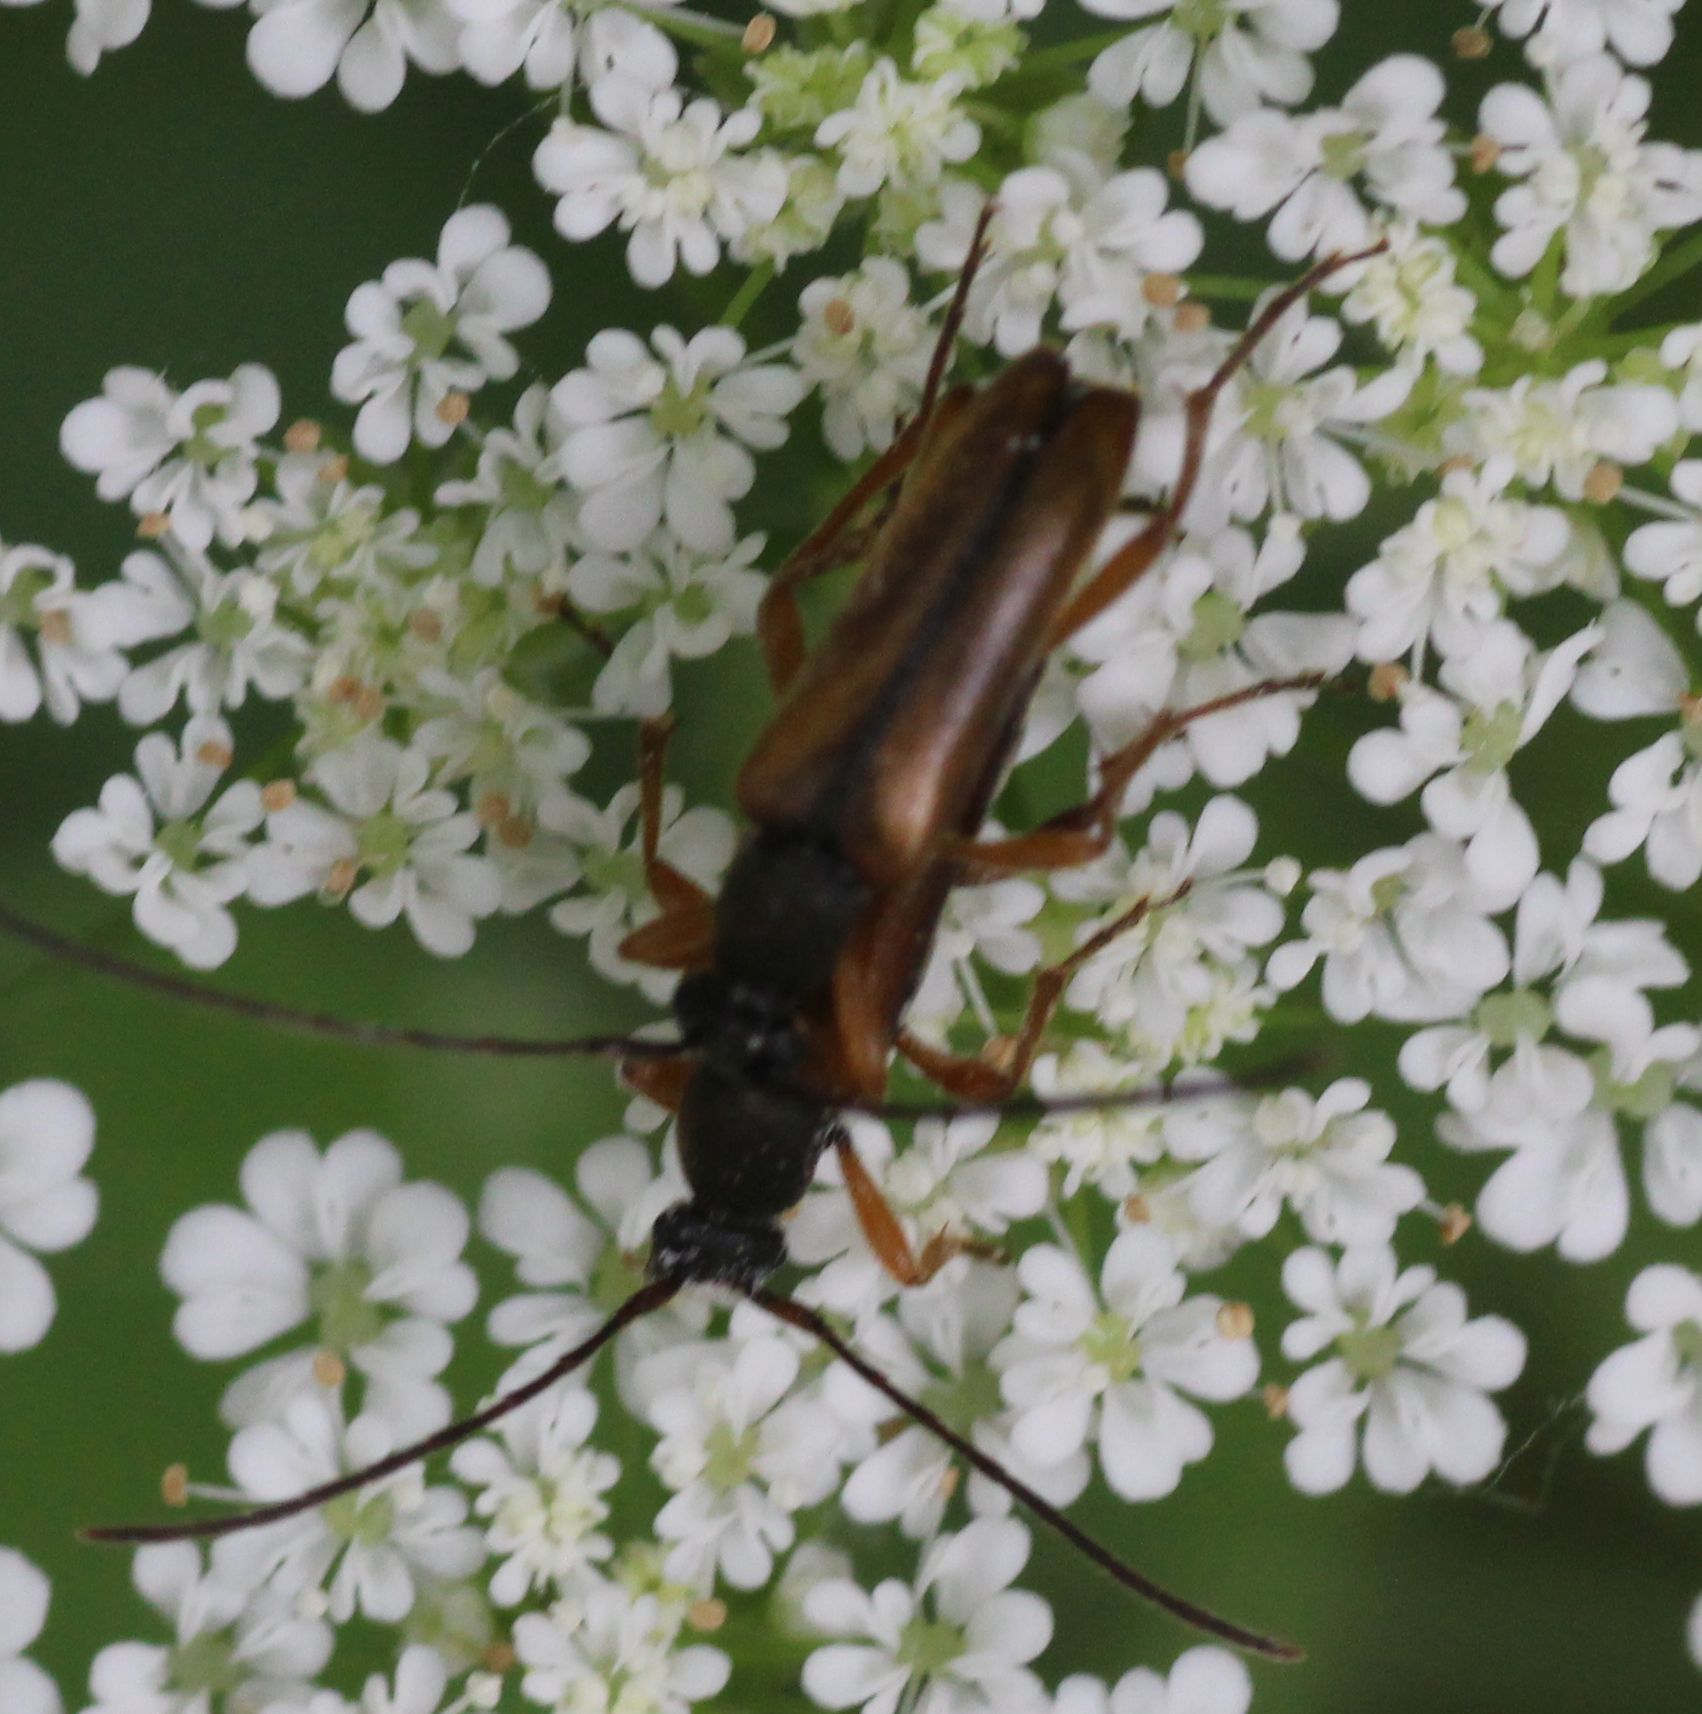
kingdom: Animalia
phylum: Arthropoda
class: Insecta
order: Coleoptera
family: Cerambycidae
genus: Alosterna
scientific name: Alosterna tabacicolor
